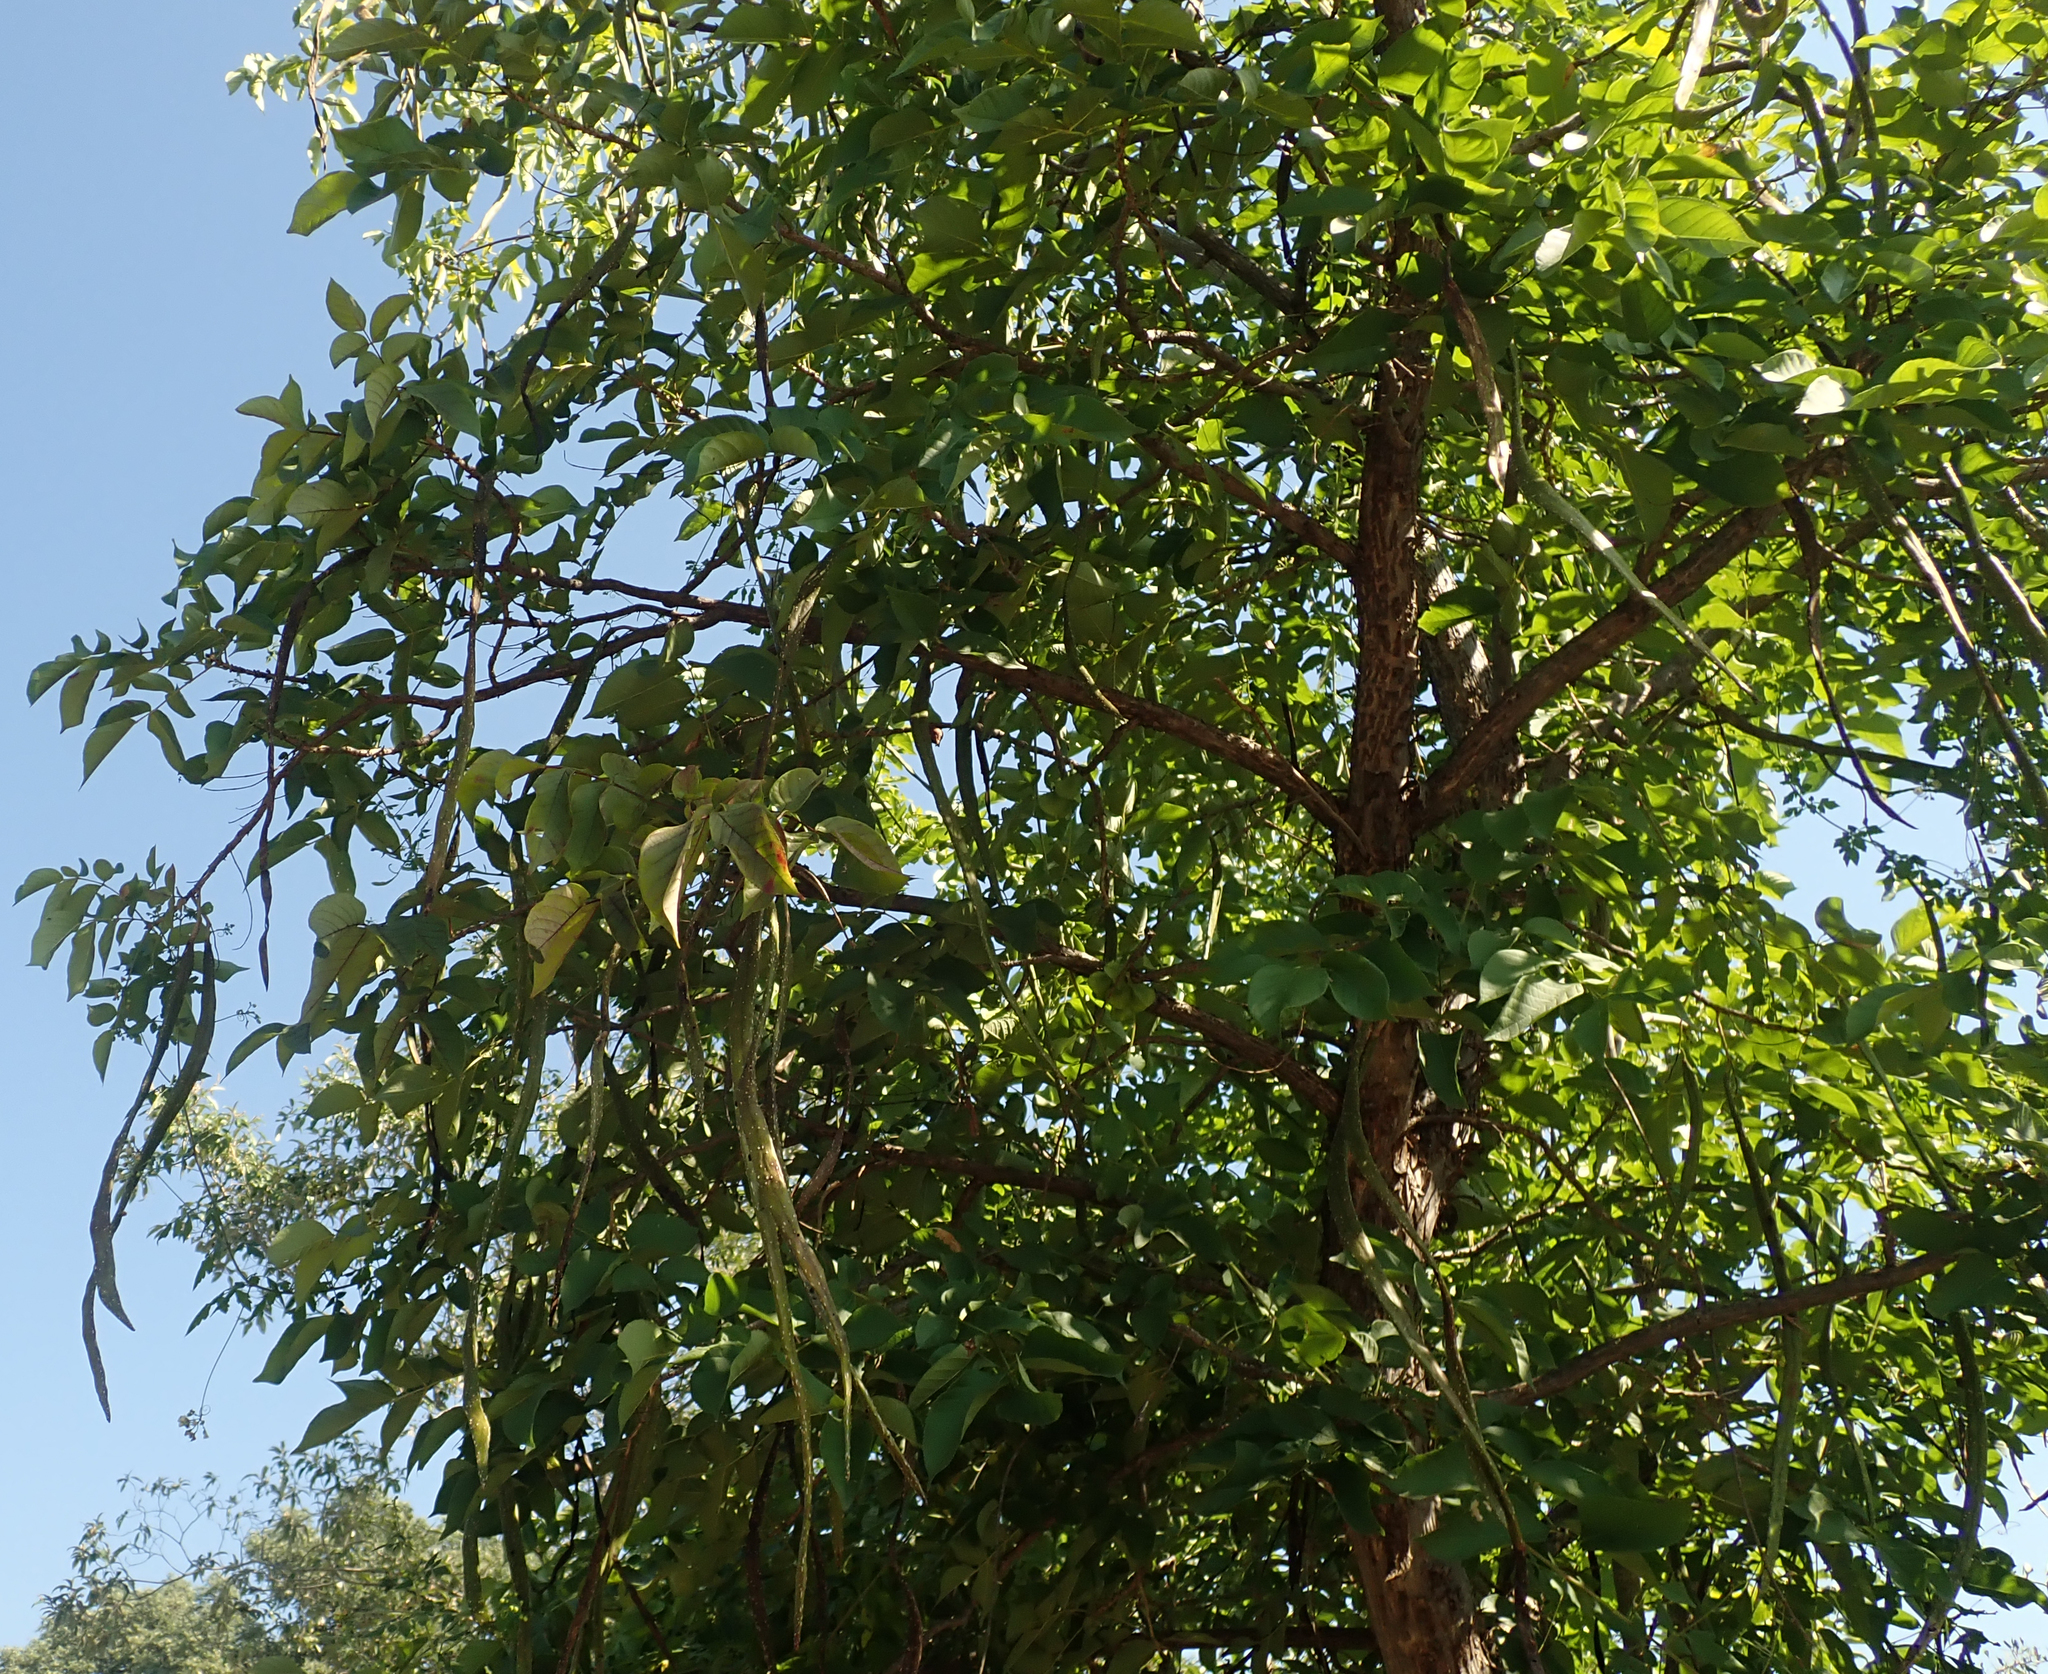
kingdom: Plantae
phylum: Tracheophyta
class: Magnoliopsida
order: Lamiales
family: Bignoniaceae
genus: Markhamia
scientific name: Markhamia zanzibarica
